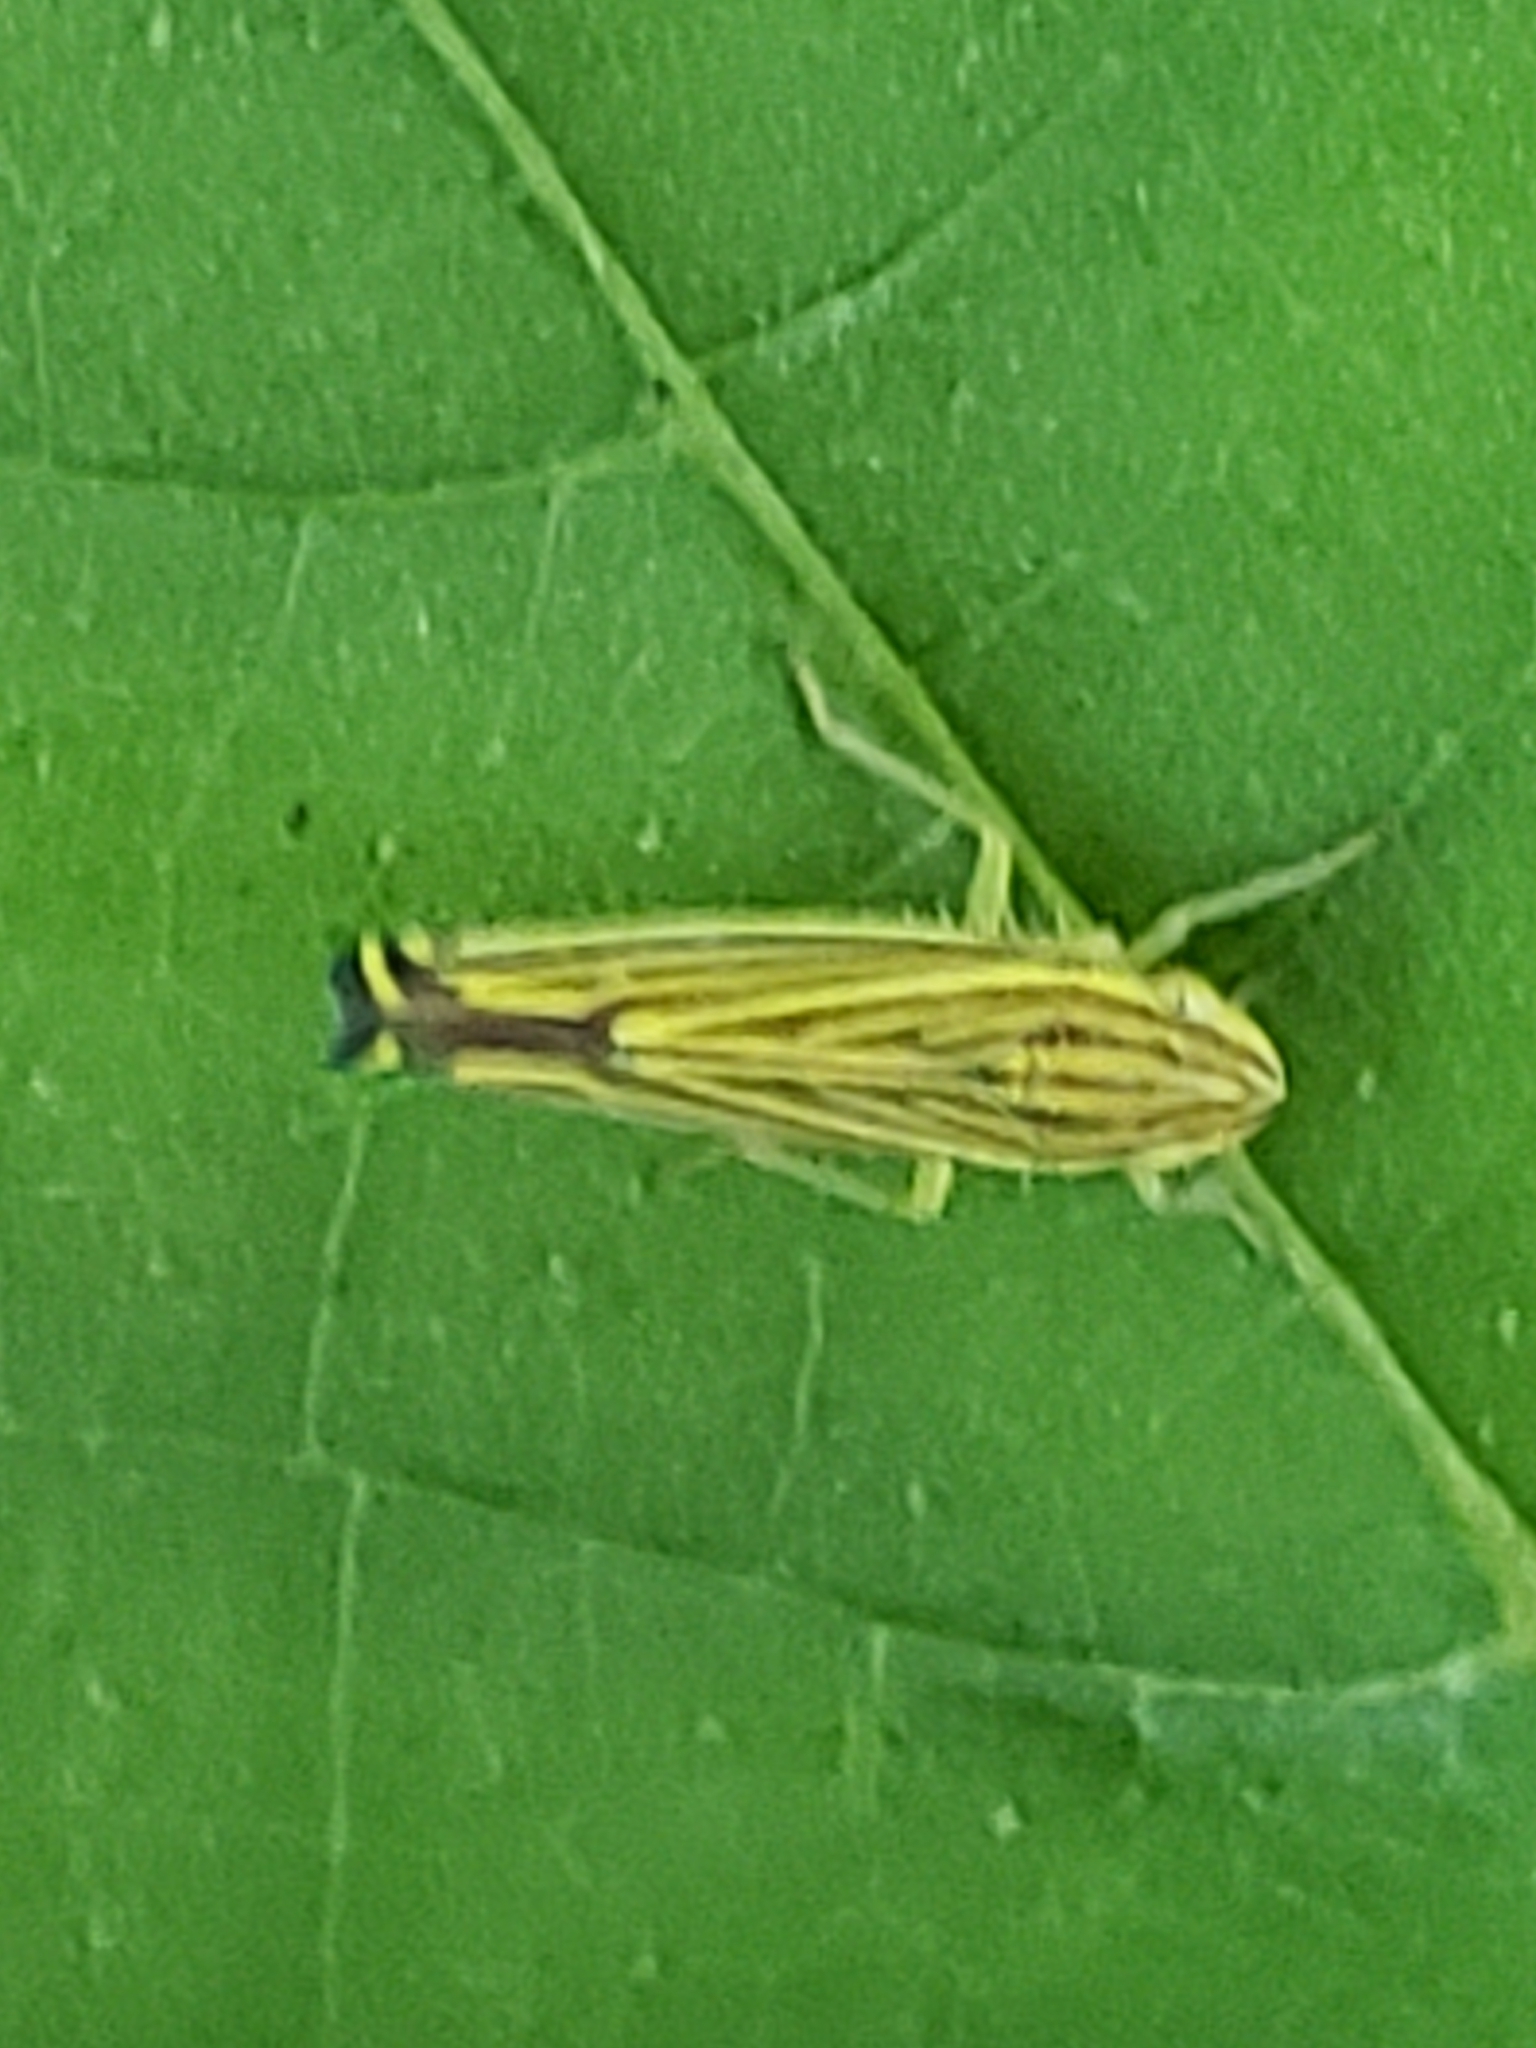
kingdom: Animalia
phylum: Arthropoda
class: Insecta
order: Hemiptera
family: Cicadellidae
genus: Sibovia
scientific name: Sibovia occatoria
